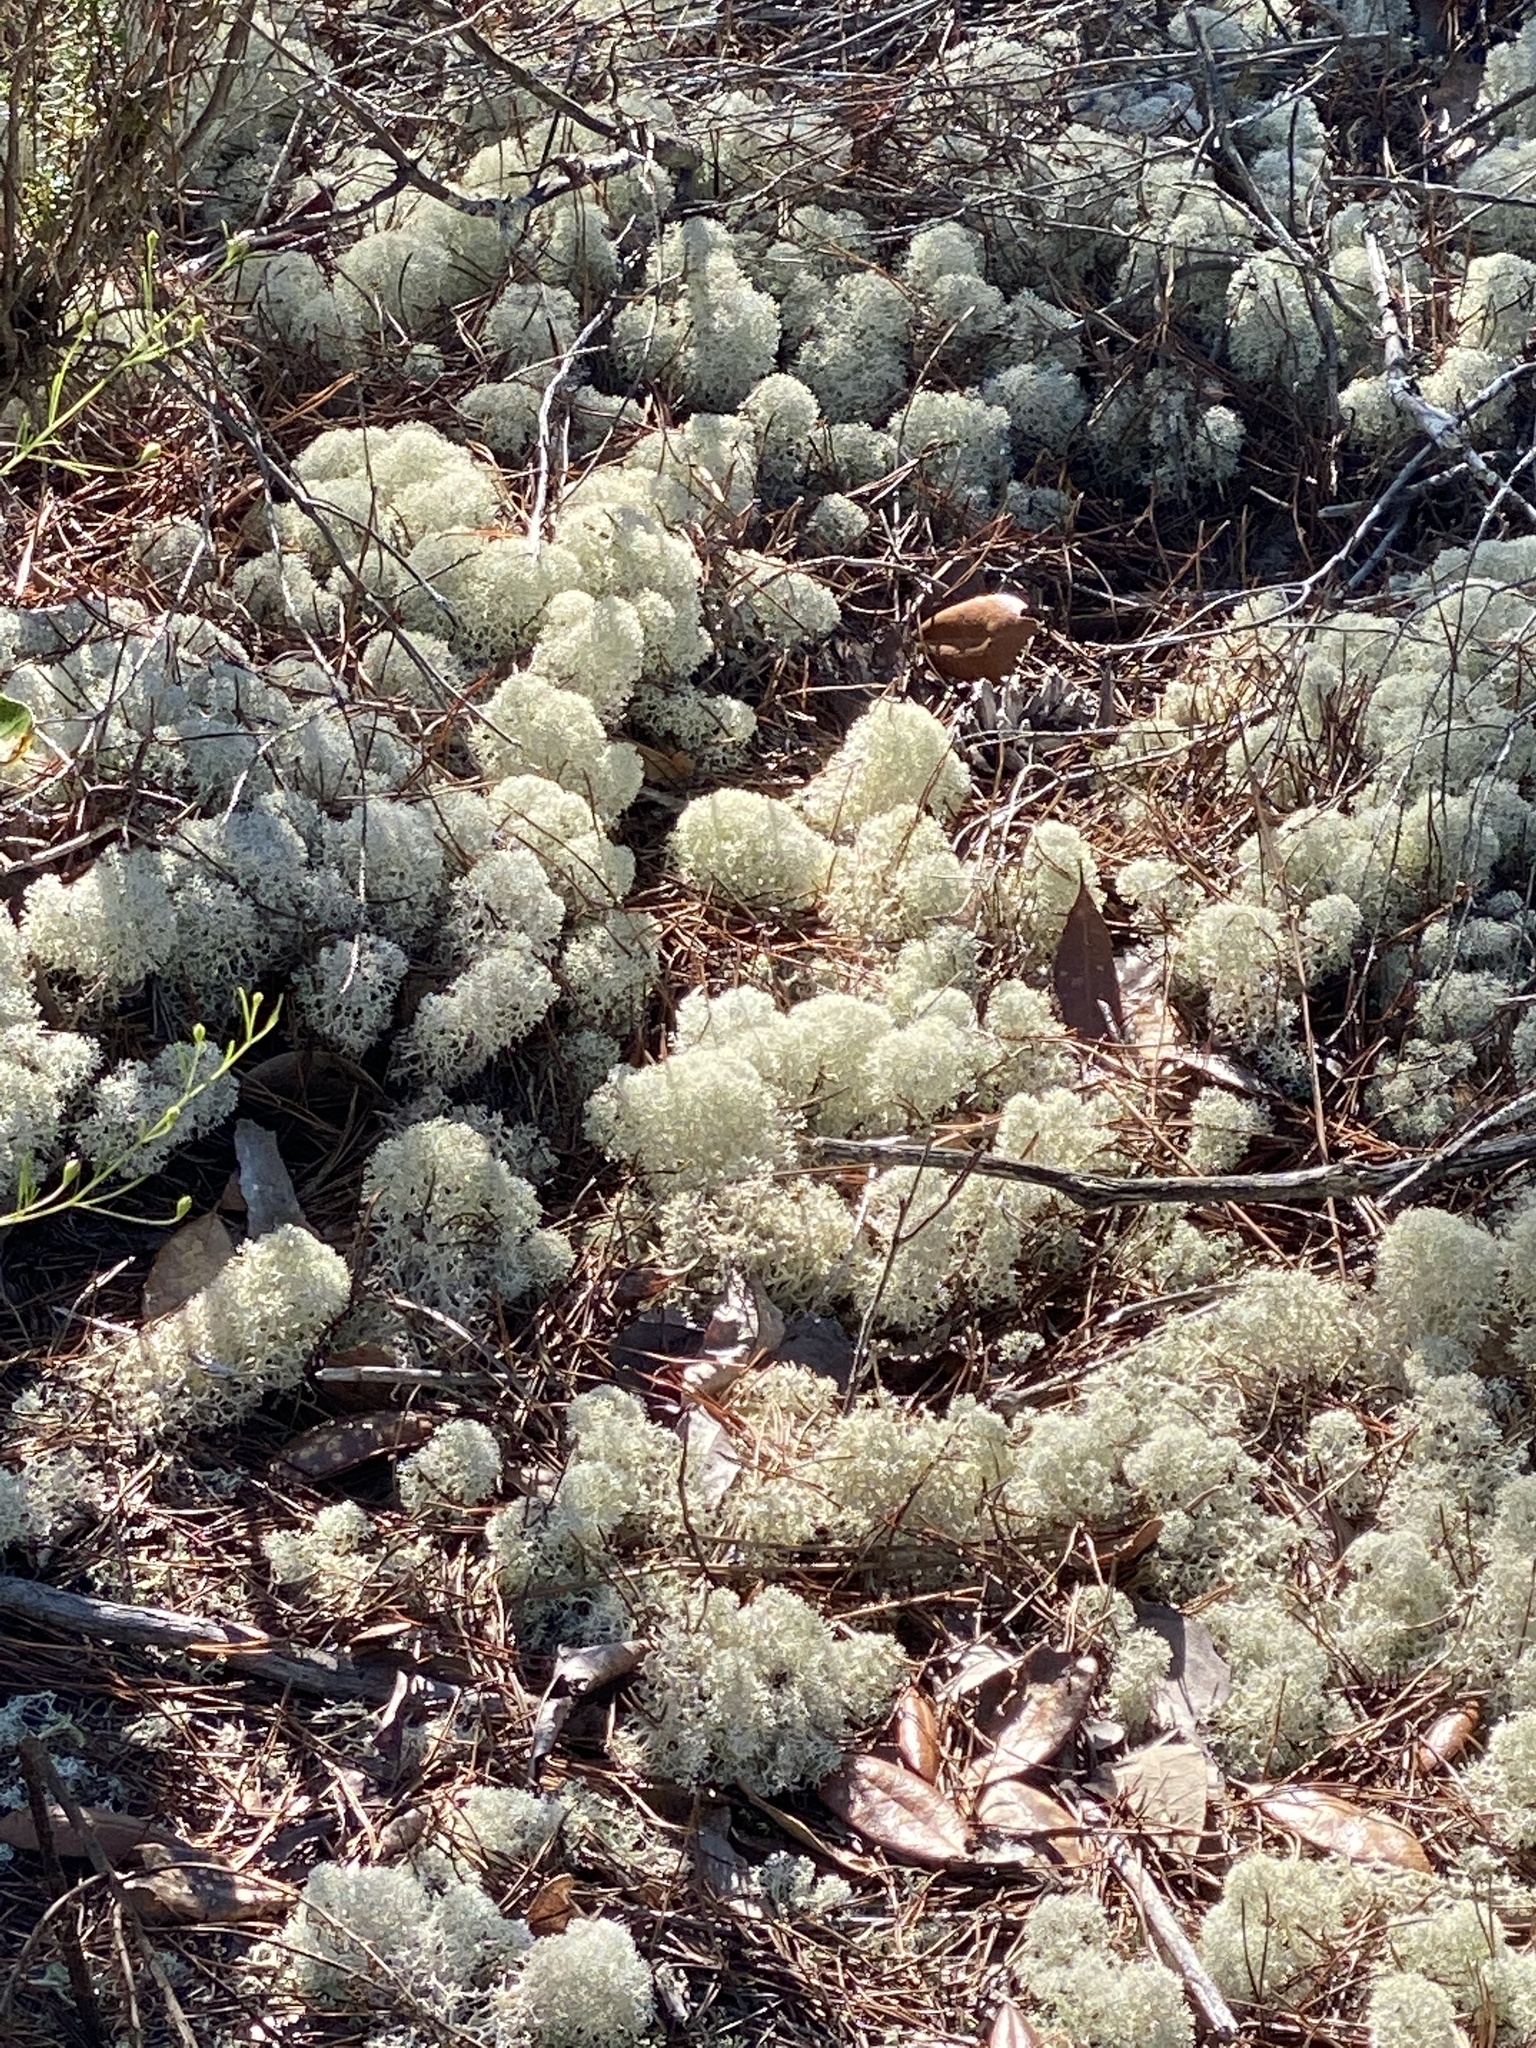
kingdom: Fungi
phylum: Ascomycota
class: Lecanoromycetes
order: Lecanorales
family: Cladoniaceae
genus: Cladonia
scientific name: Cladonia evansii
